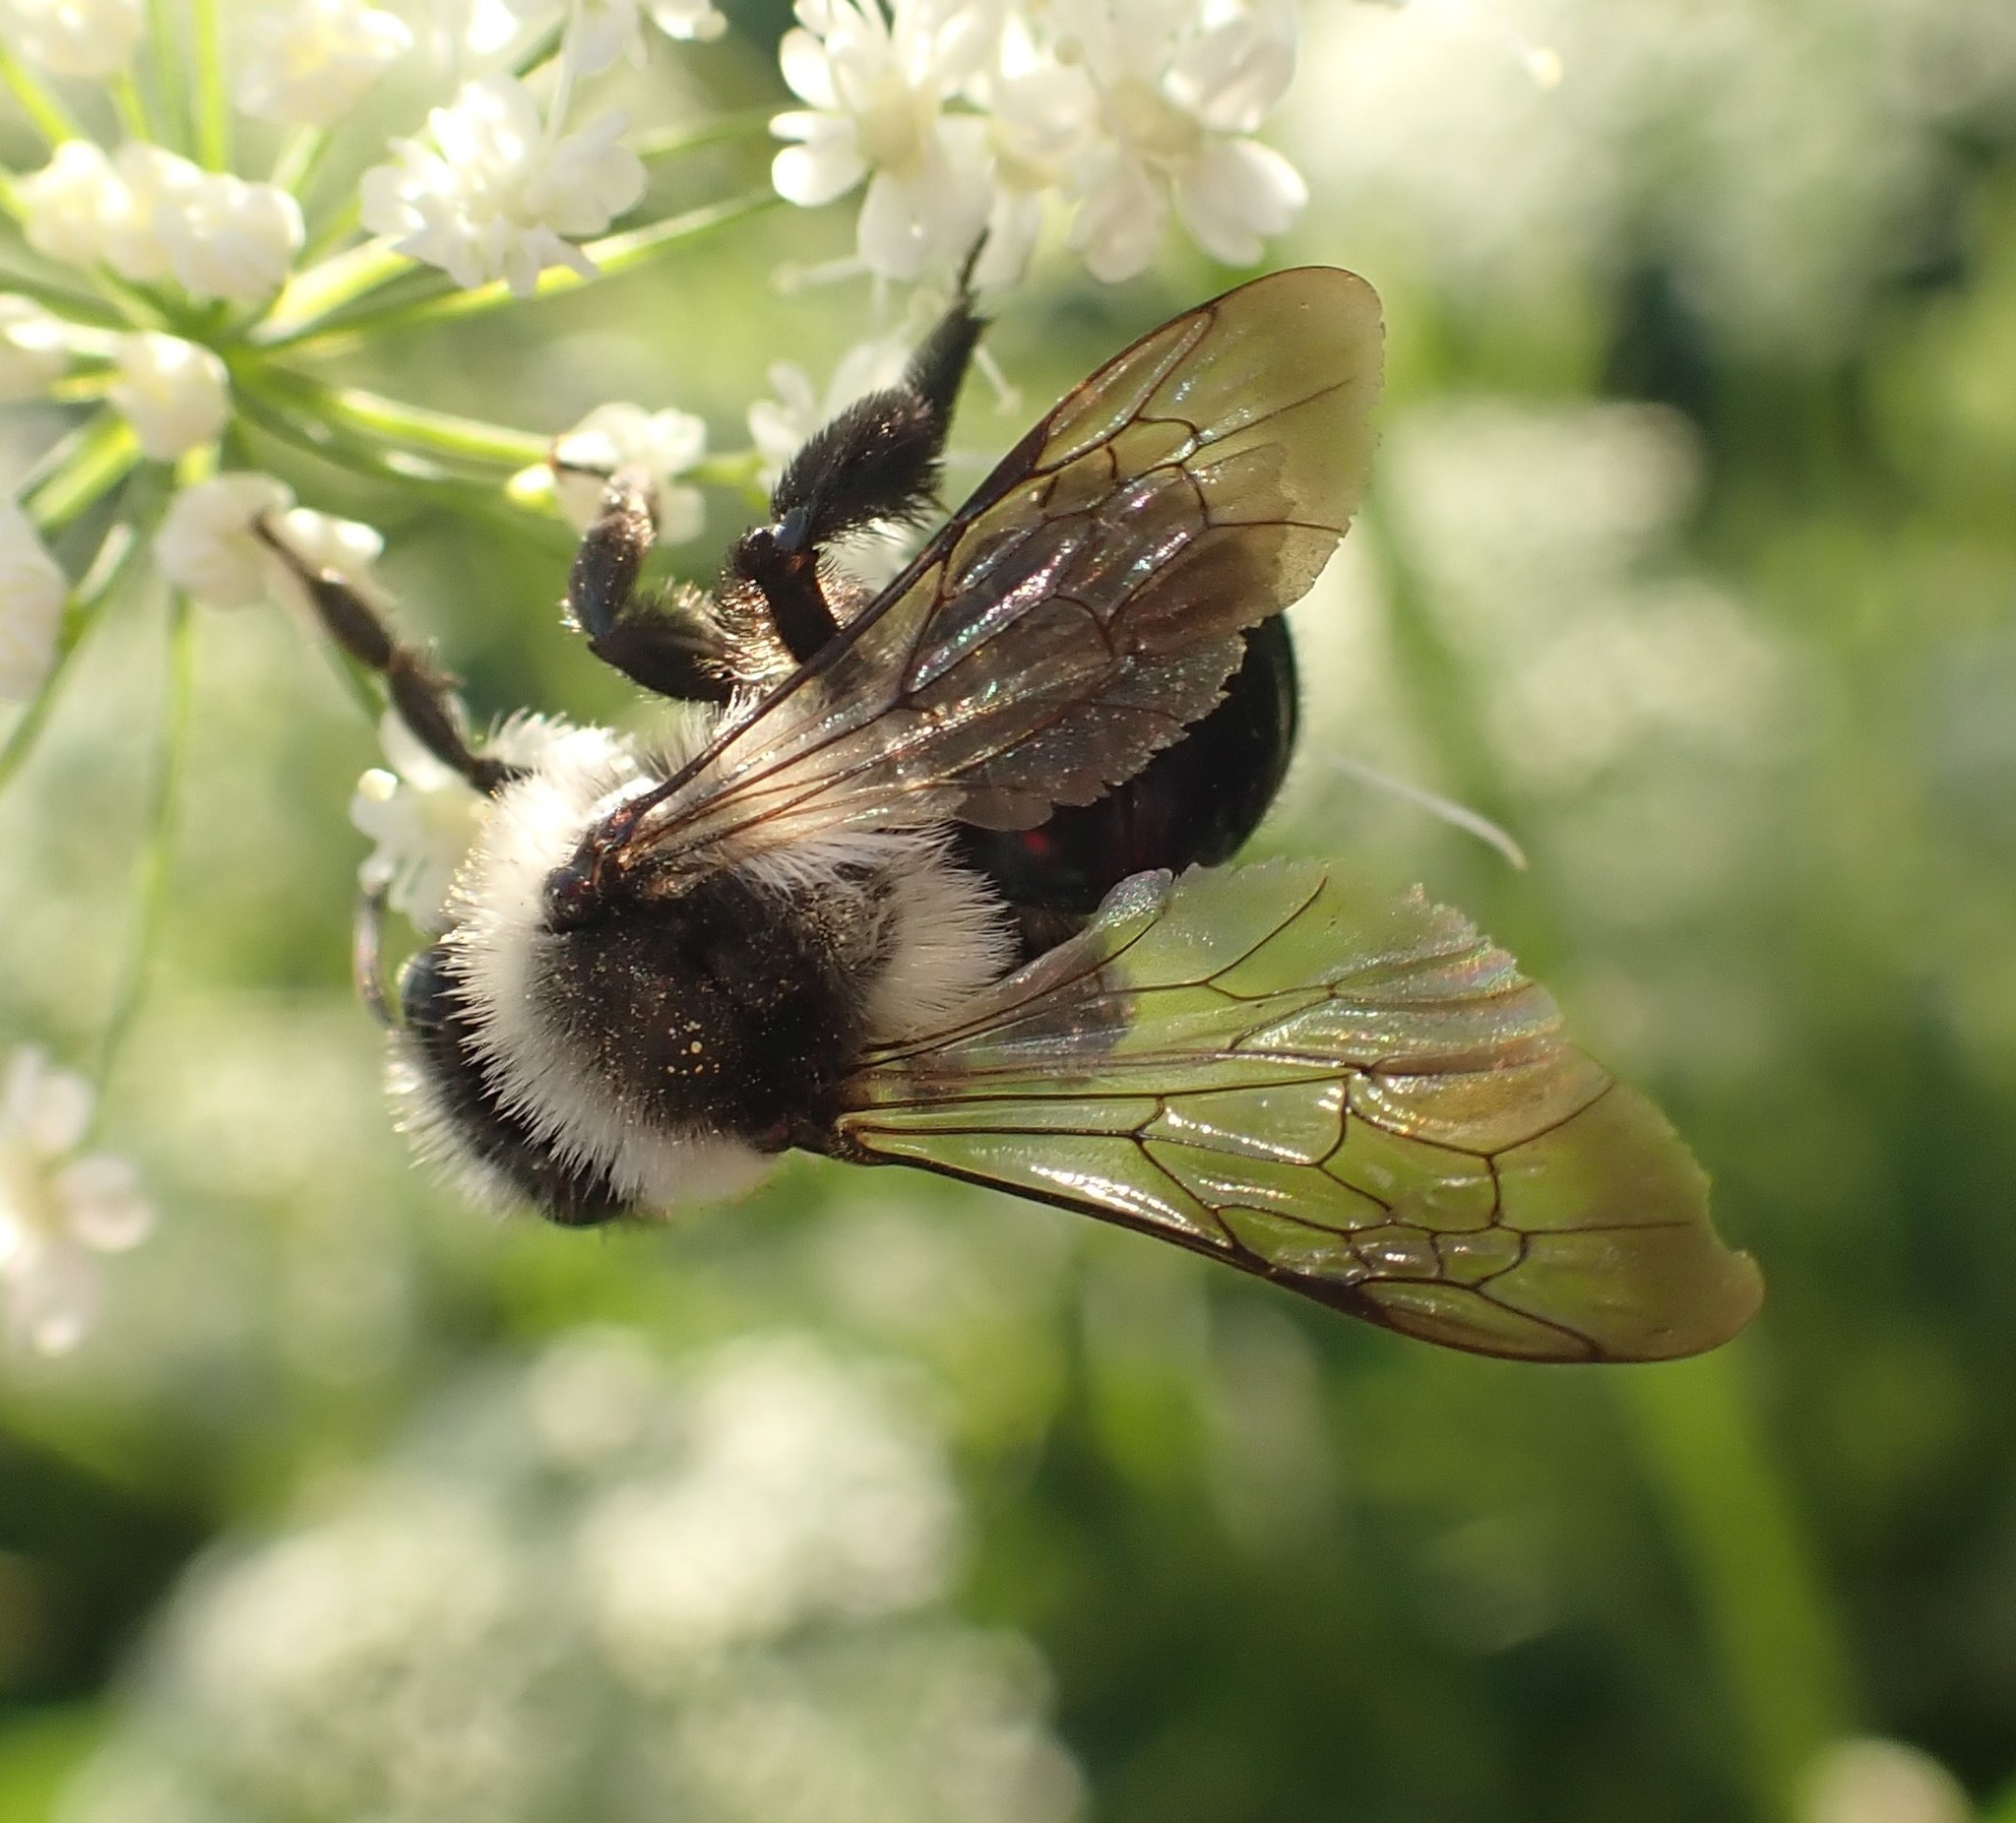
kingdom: Animalia
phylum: Arthropoda
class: Insecta
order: Hymenoptera
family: Andrenidae
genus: Andrena
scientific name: Andrena cineraria
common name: Ashy mining bee
